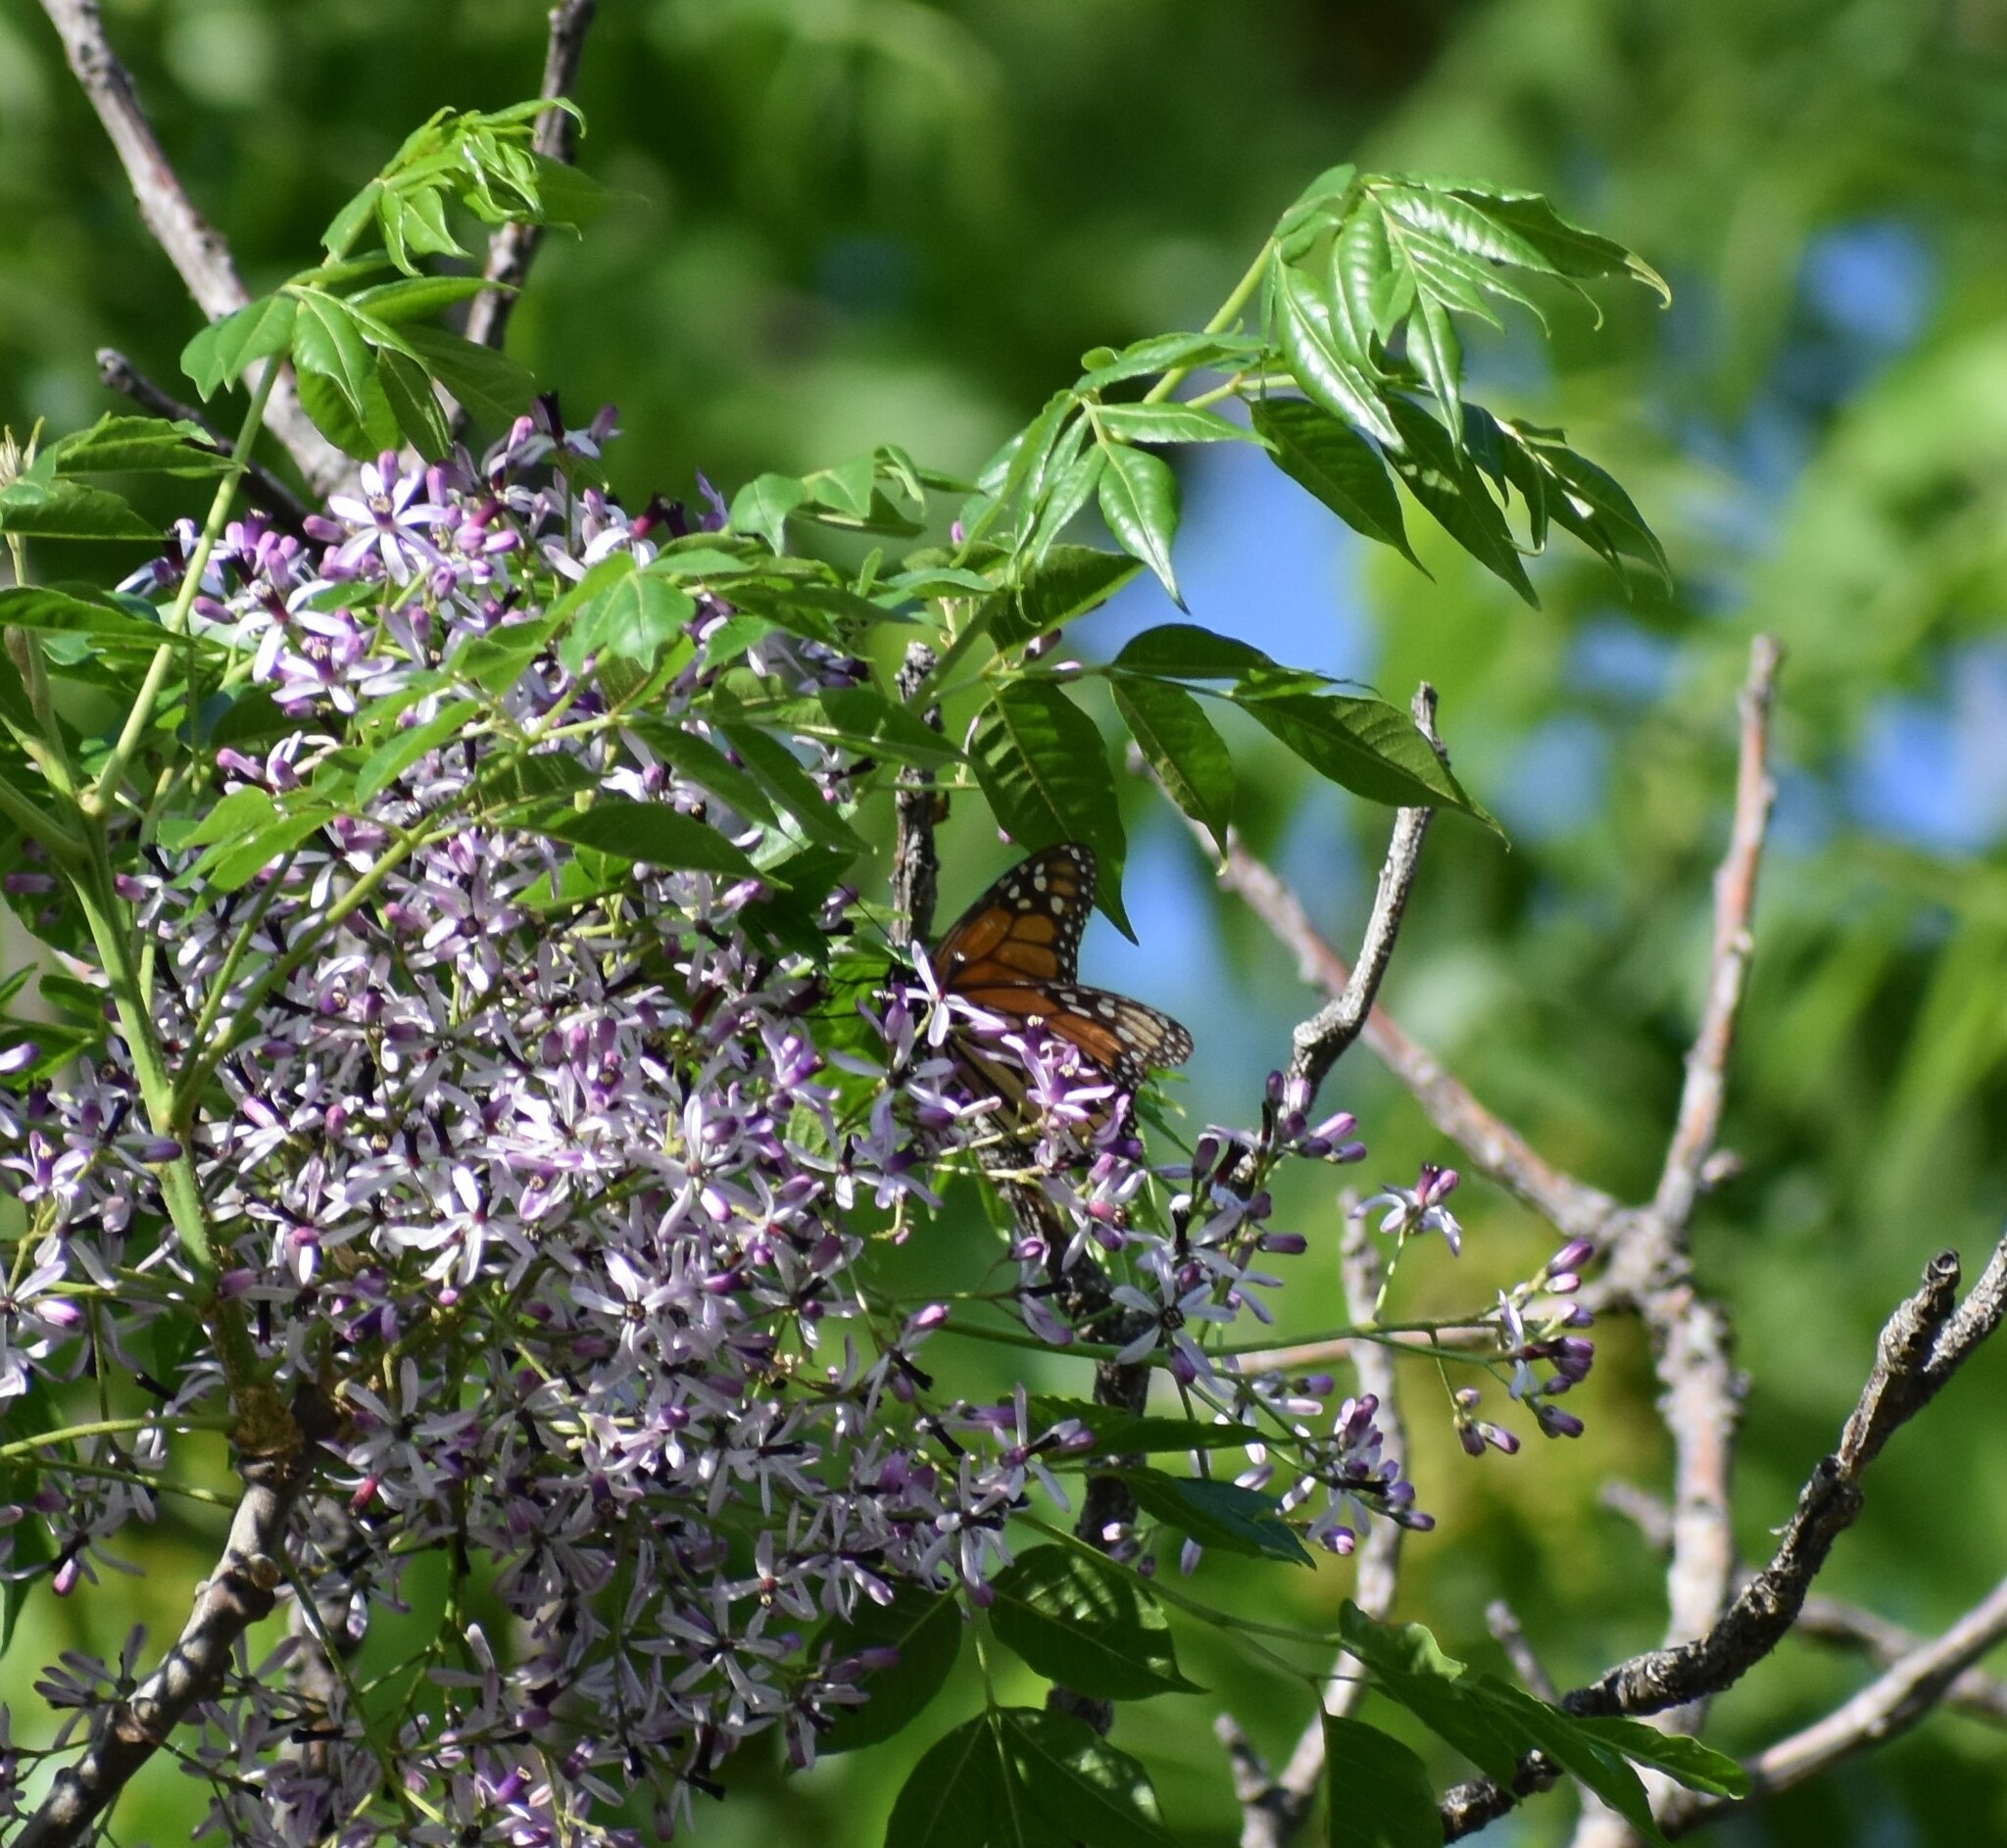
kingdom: Animalia
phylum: Arthropoda
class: Insecta
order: Lepidoptera
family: Nymphalidae
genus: Danaus
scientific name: Danaus plexippus
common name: Monarch
